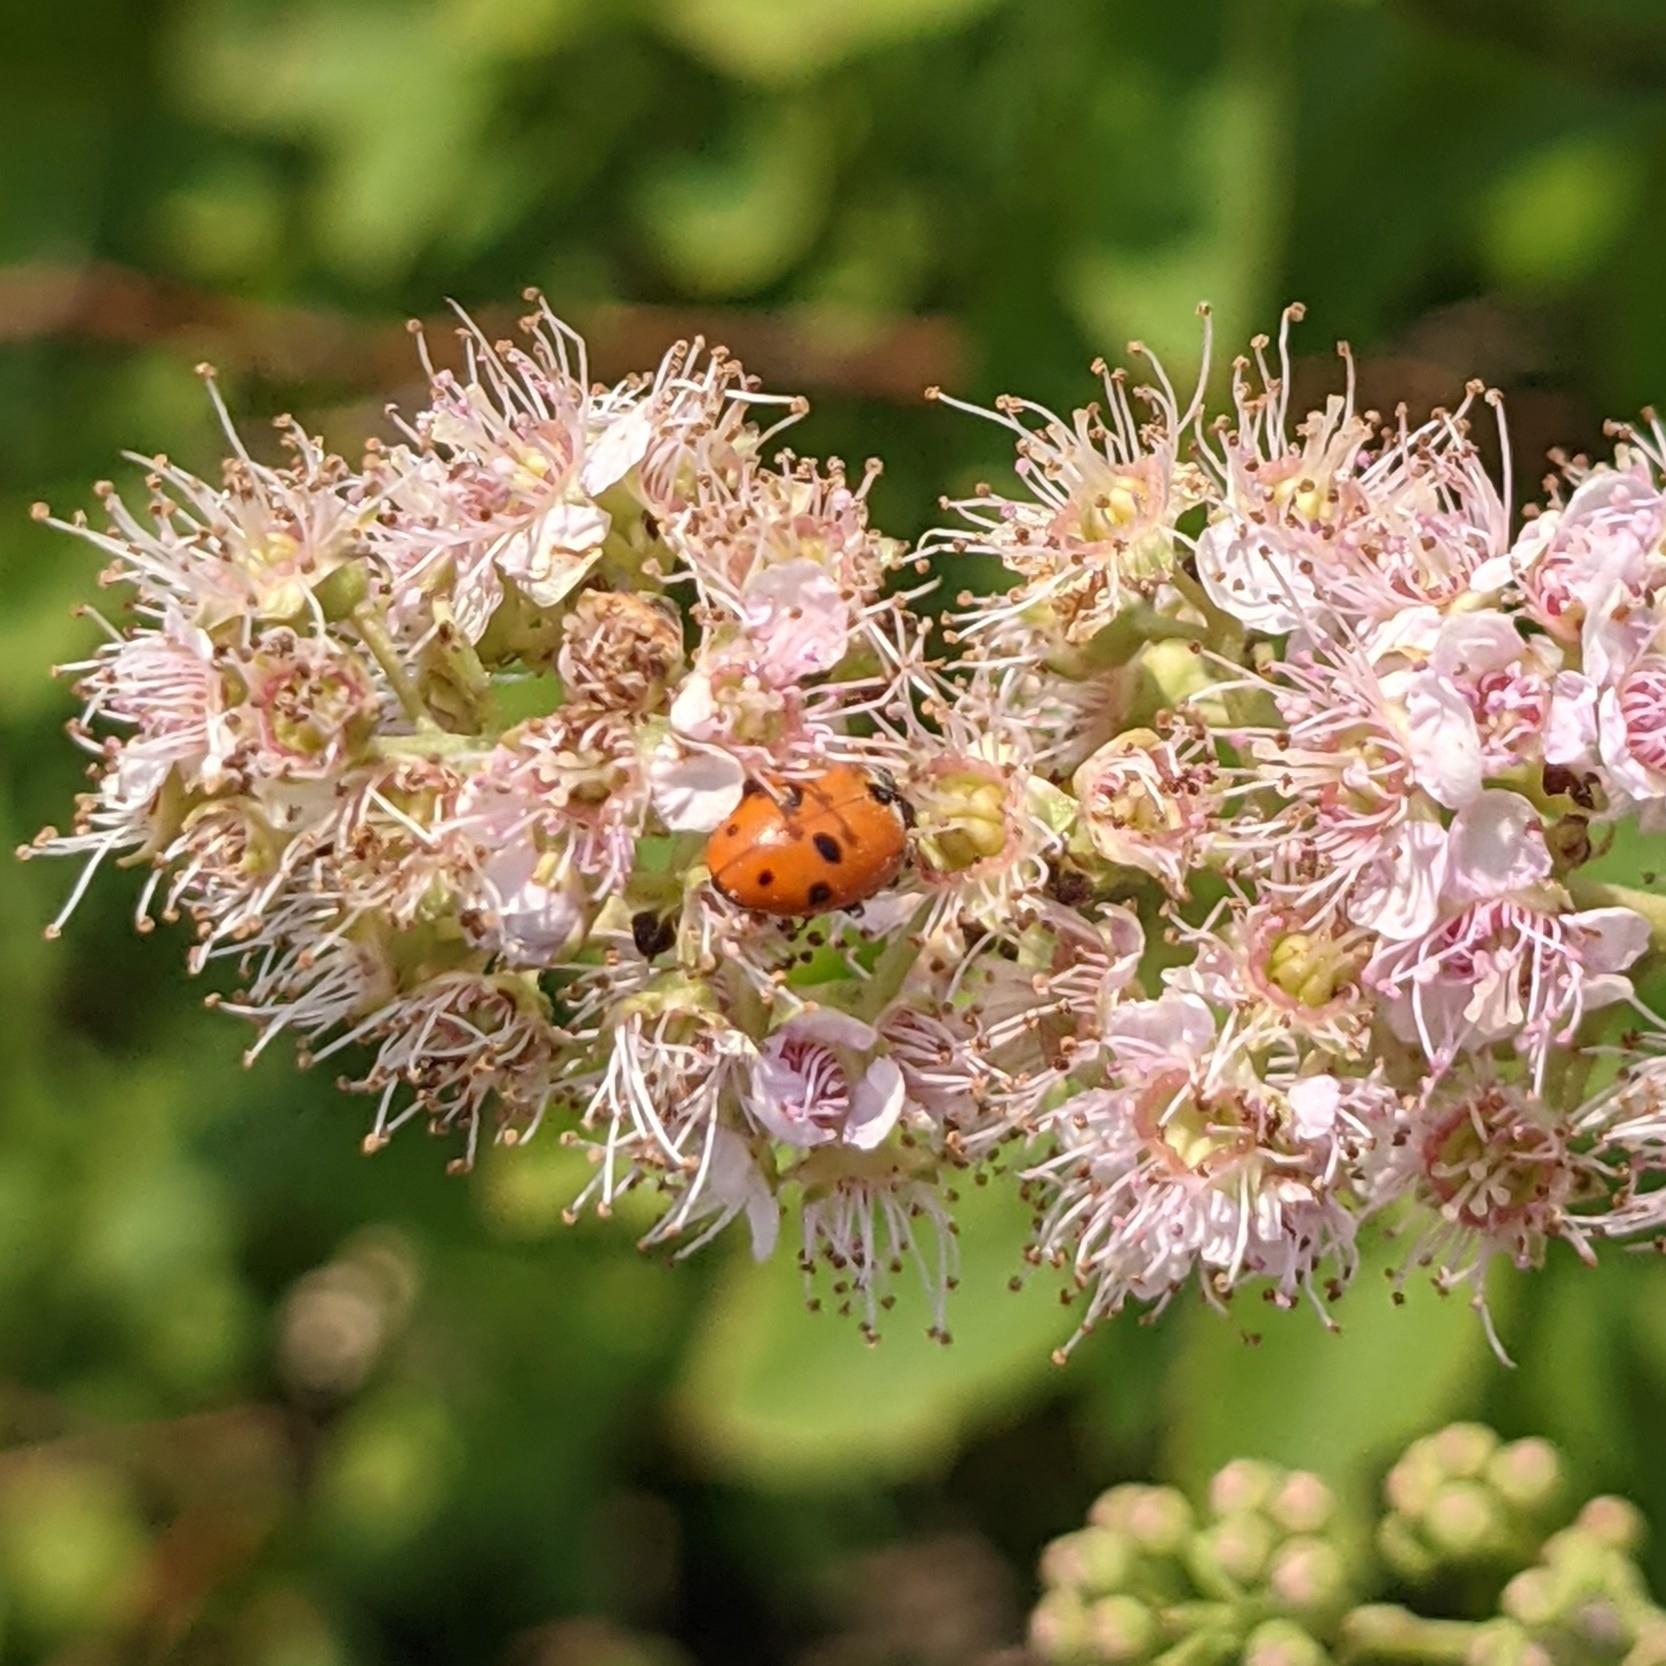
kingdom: Animalia
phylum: Arthropoda
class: Insecta
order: Coleoptera
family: Coccinellidae
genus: Hippodamia
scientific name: Hippodamia variegata
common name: Ladybird beetle
